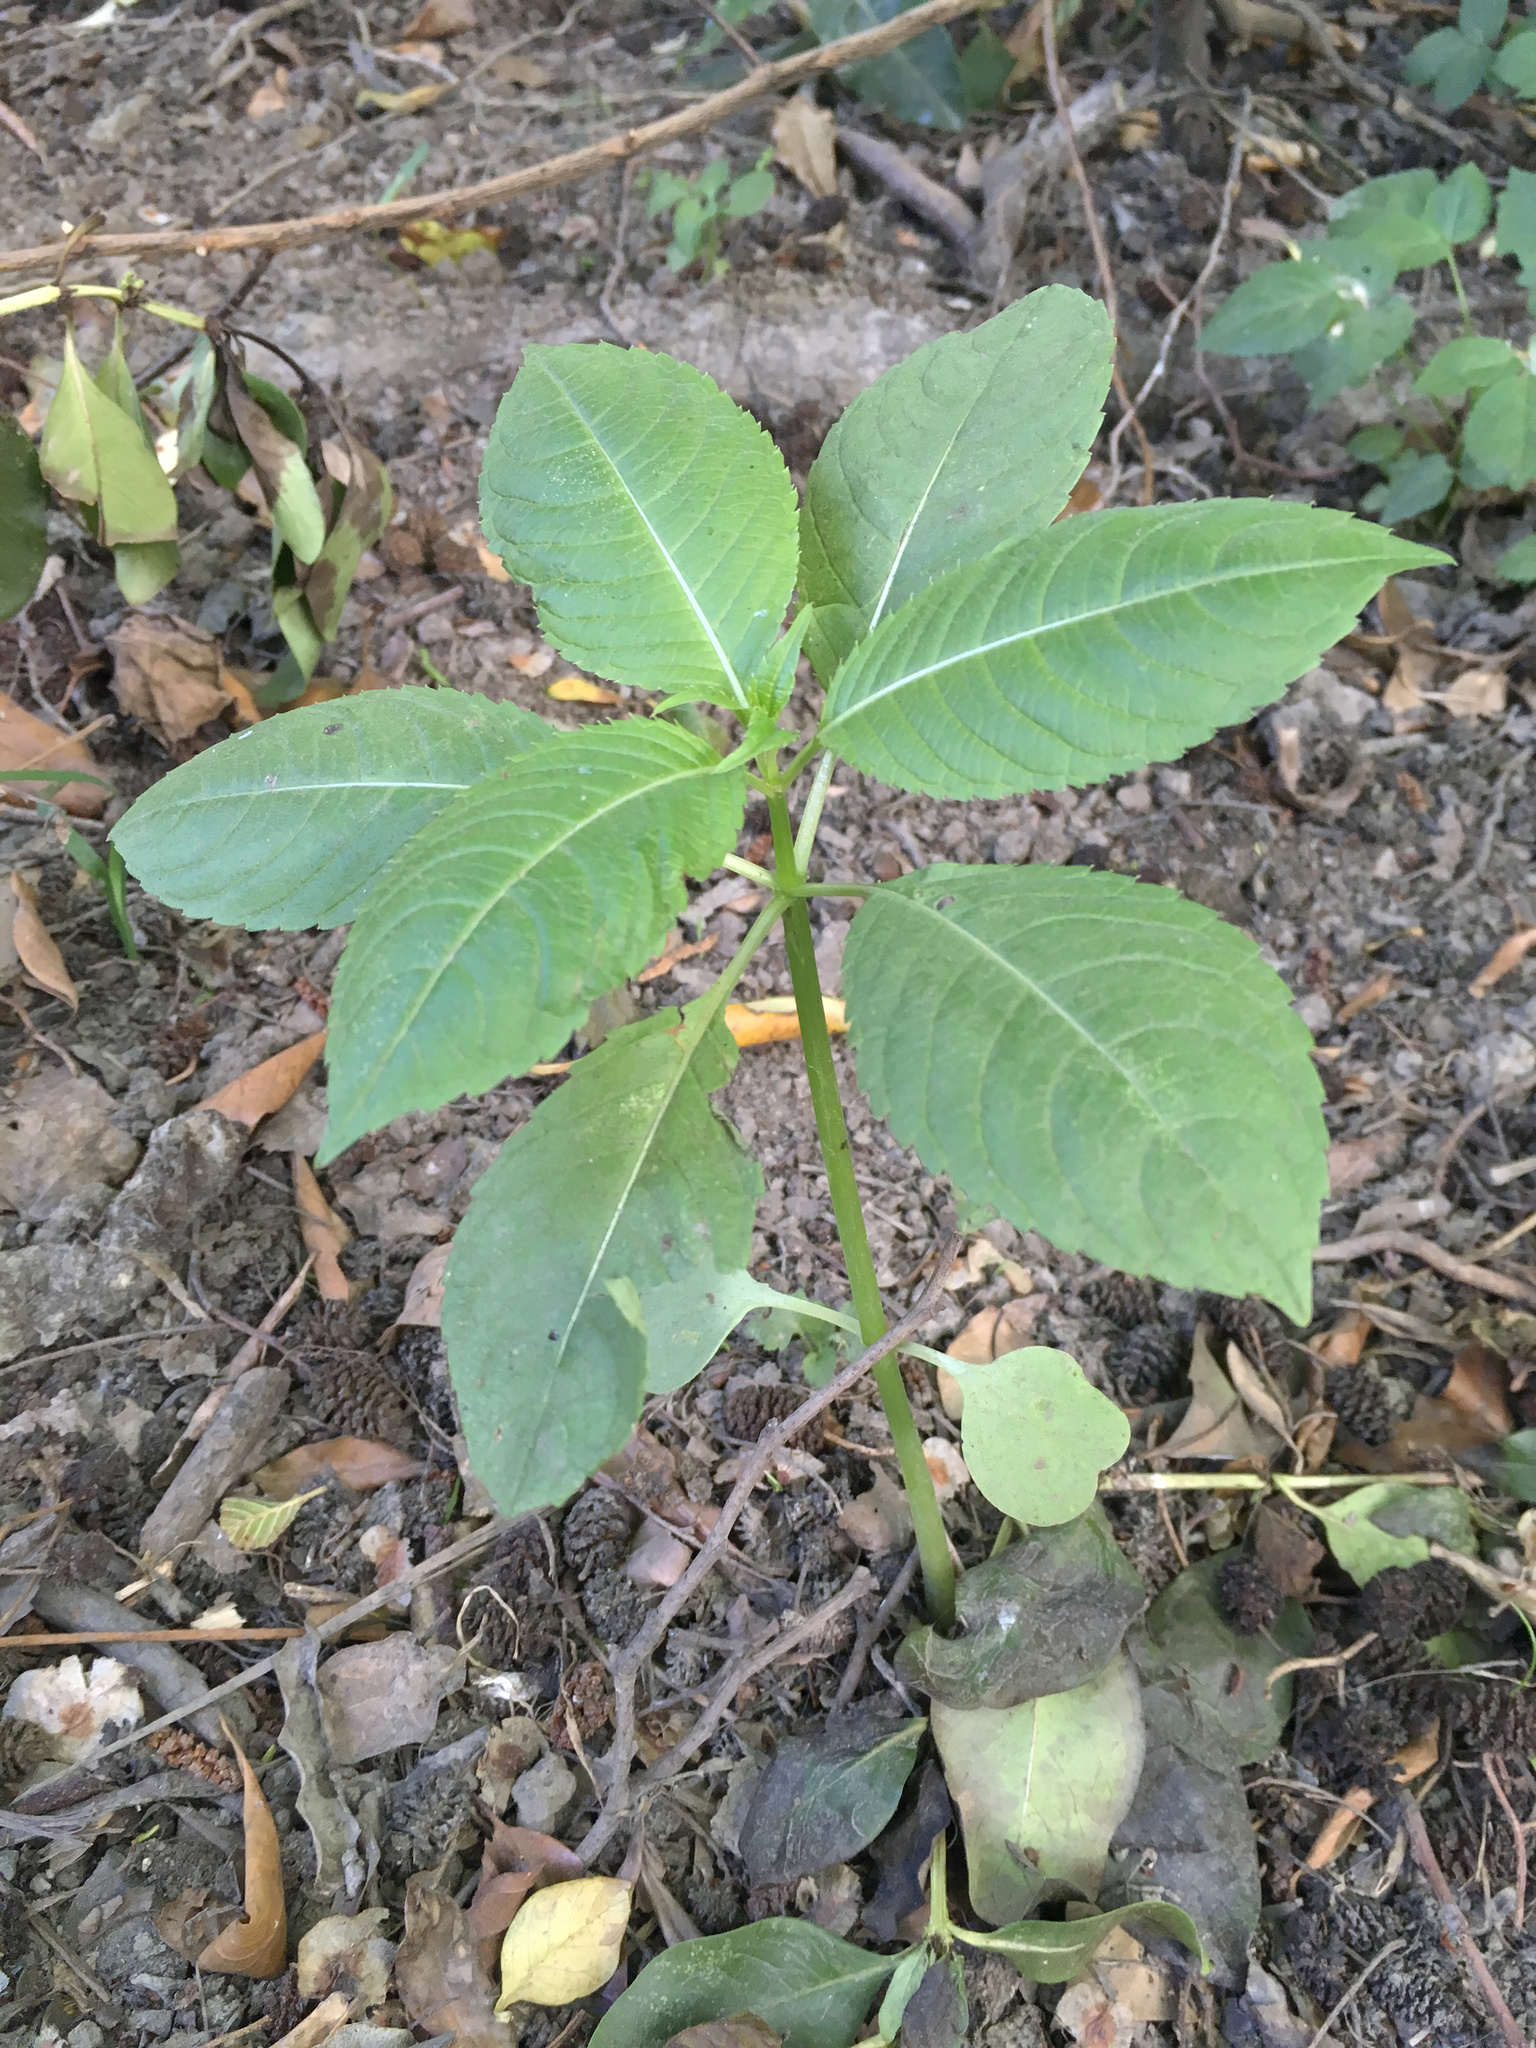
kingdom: Plantae
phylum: Tracheophyta
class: Magnoliopsida
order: Ericales
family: Balsaminaceae
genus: Impatiens
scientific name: Impatiens glandulifera
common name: Himalayan balsam
